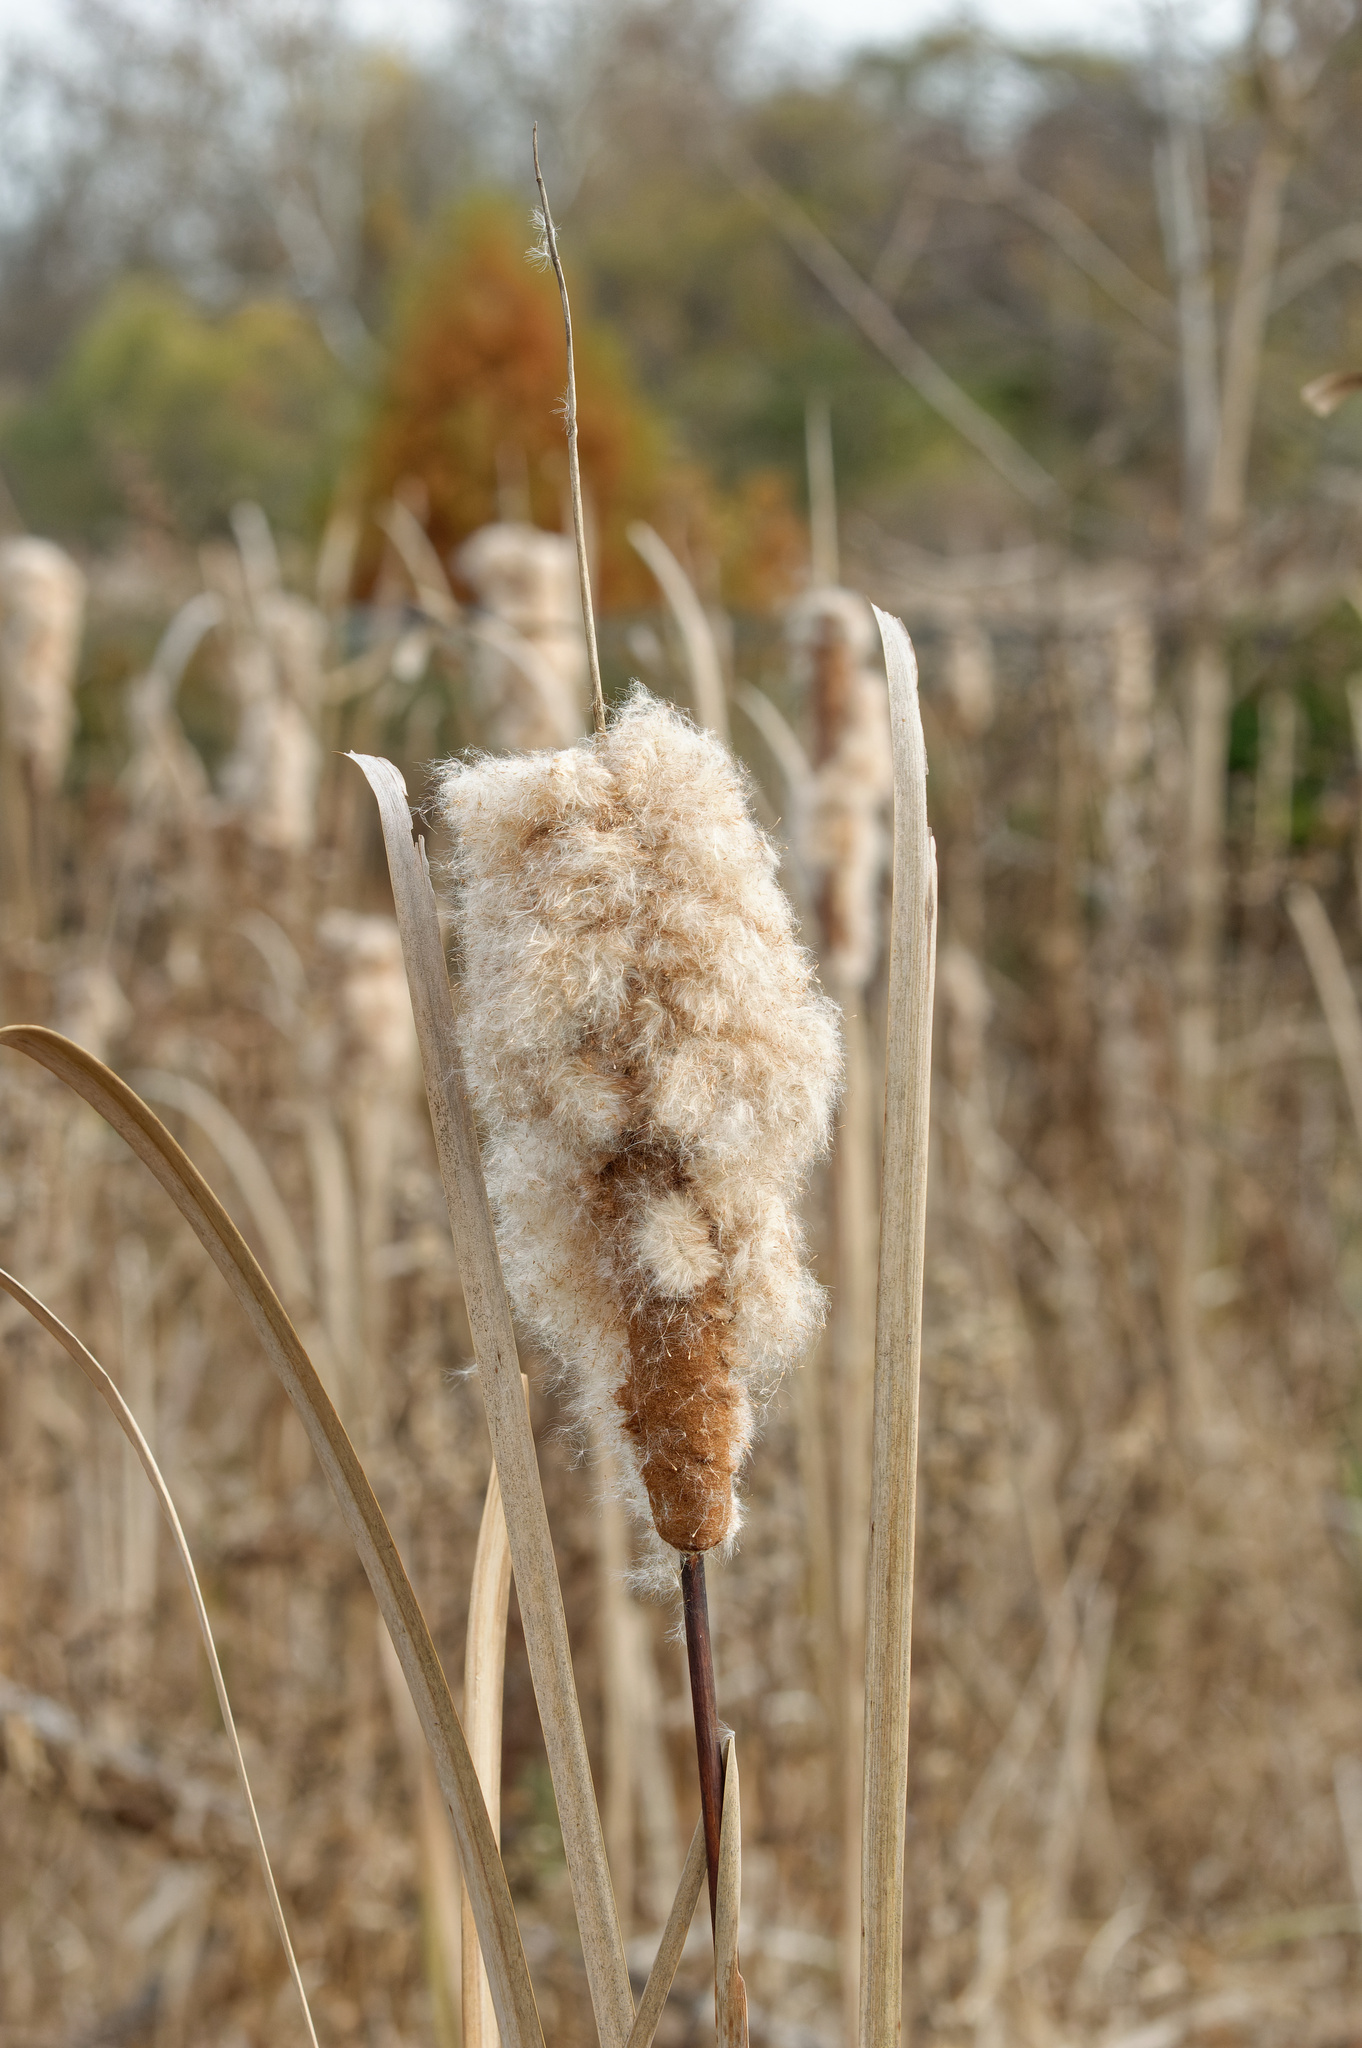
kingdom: Plantae
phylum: Tracheophyta
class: Liliopsida
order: Poales
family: Typhaceae
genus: Typha
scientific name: Typha latifolia
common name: Broadleaf cattail
